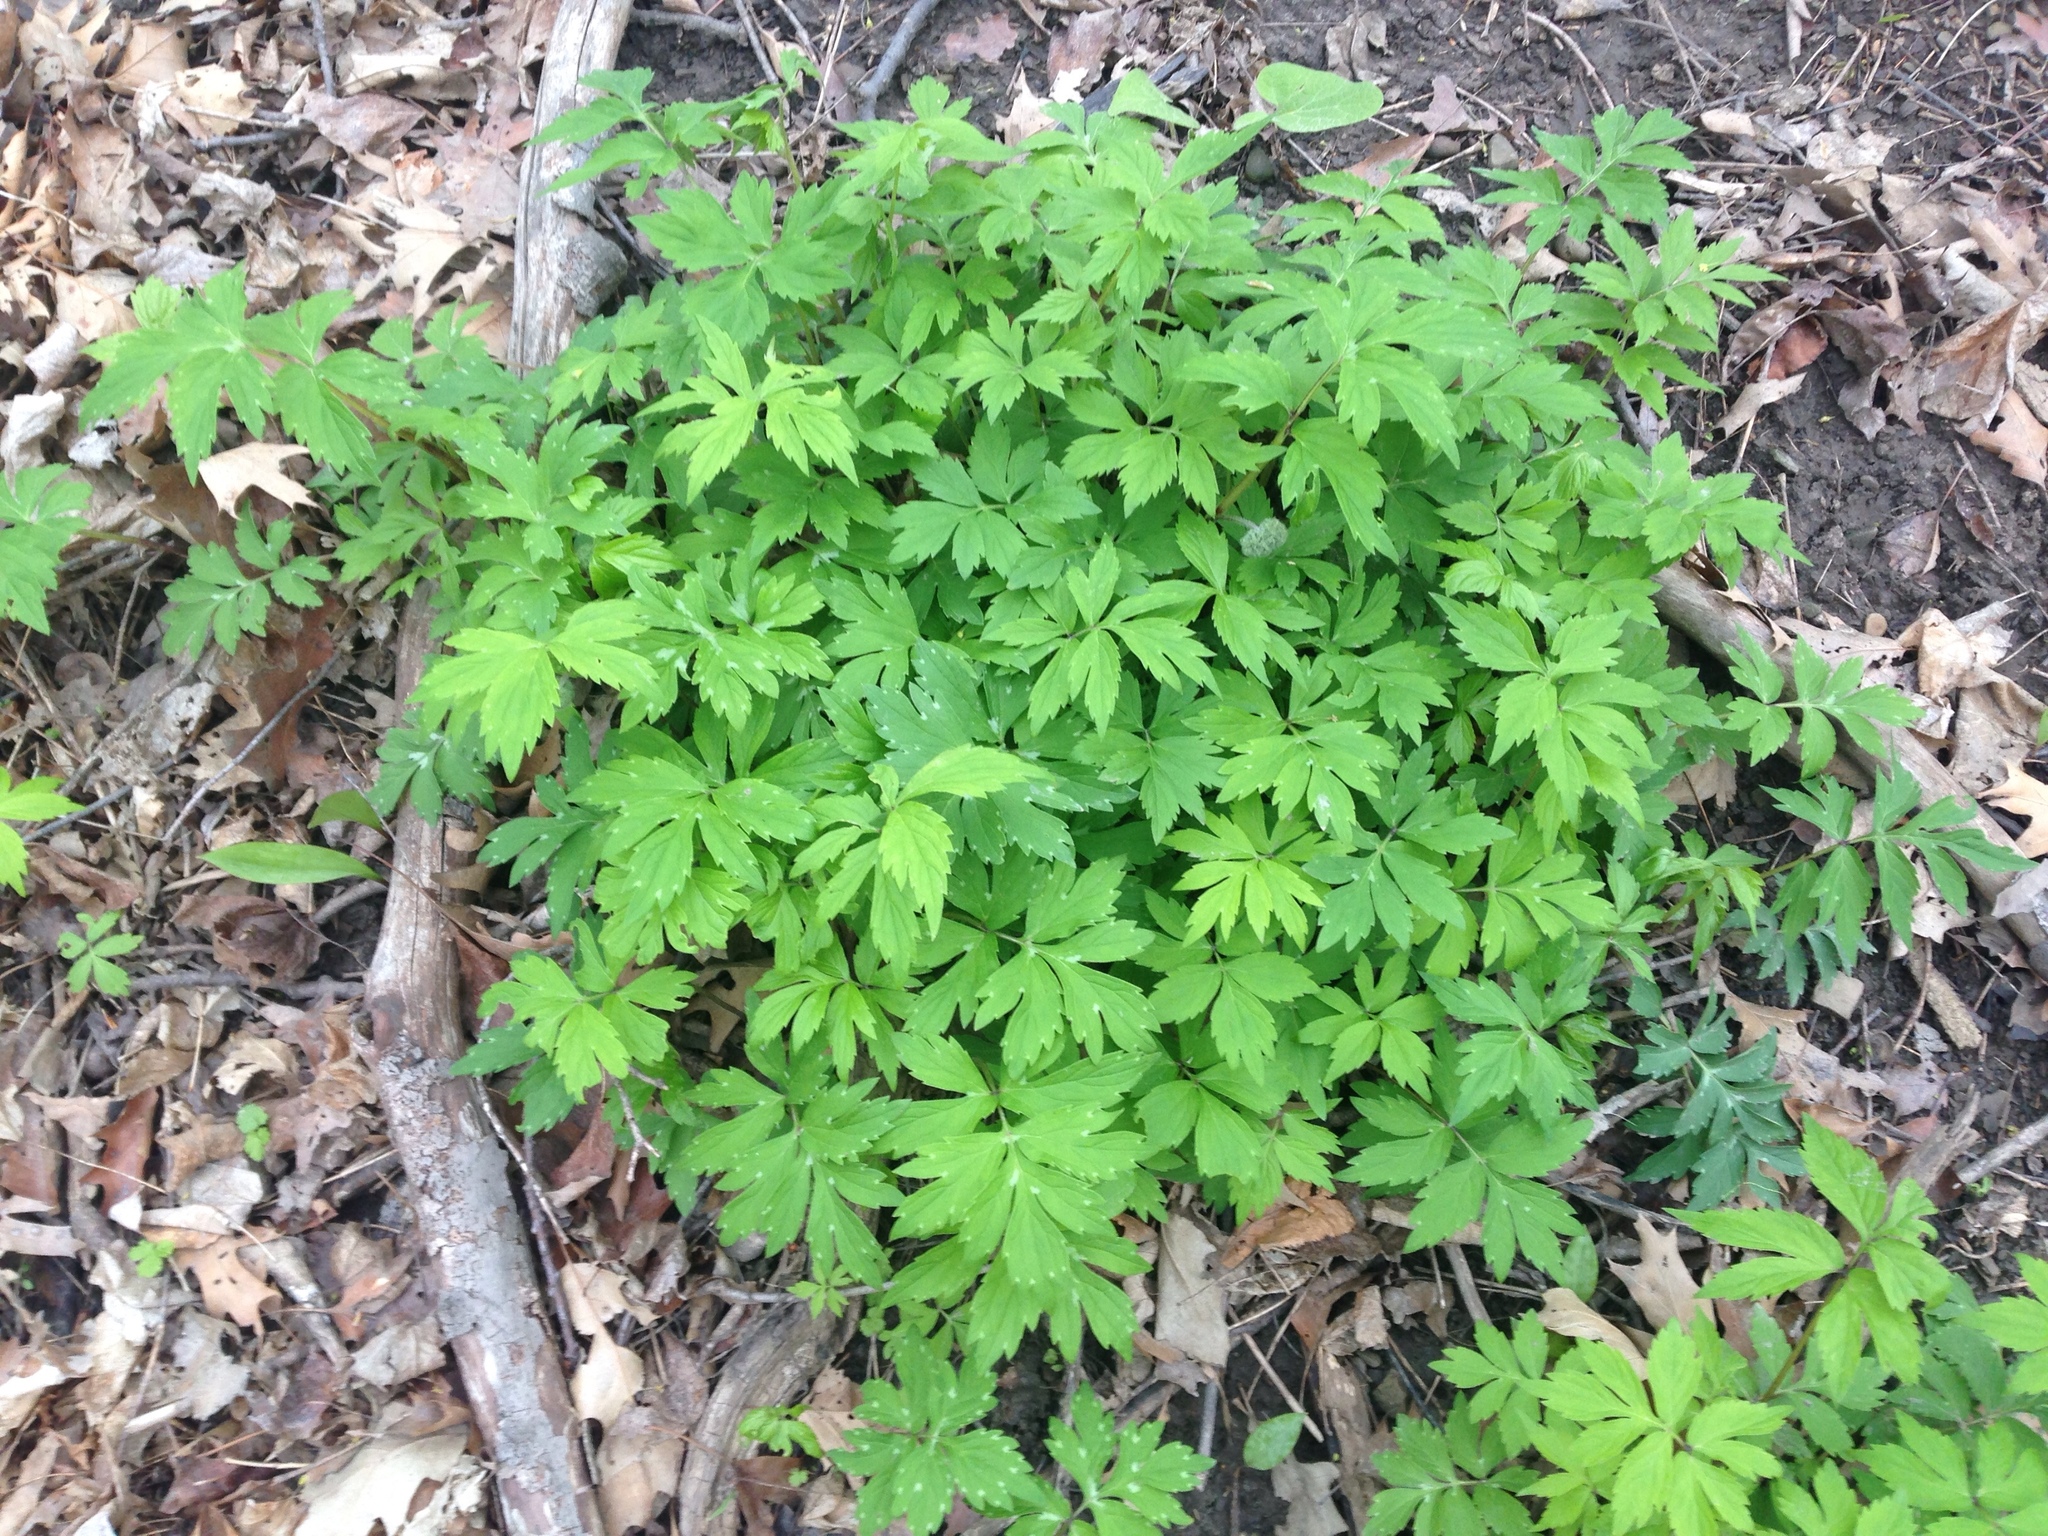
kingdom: Plantae
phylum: Tracheophyta
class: Magnoliopsida
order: Boraginales
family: Hydrophyllaceae
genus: Hydrophyllum
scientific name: Hydrophyllum virginianum
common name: Virginia waterleaf
